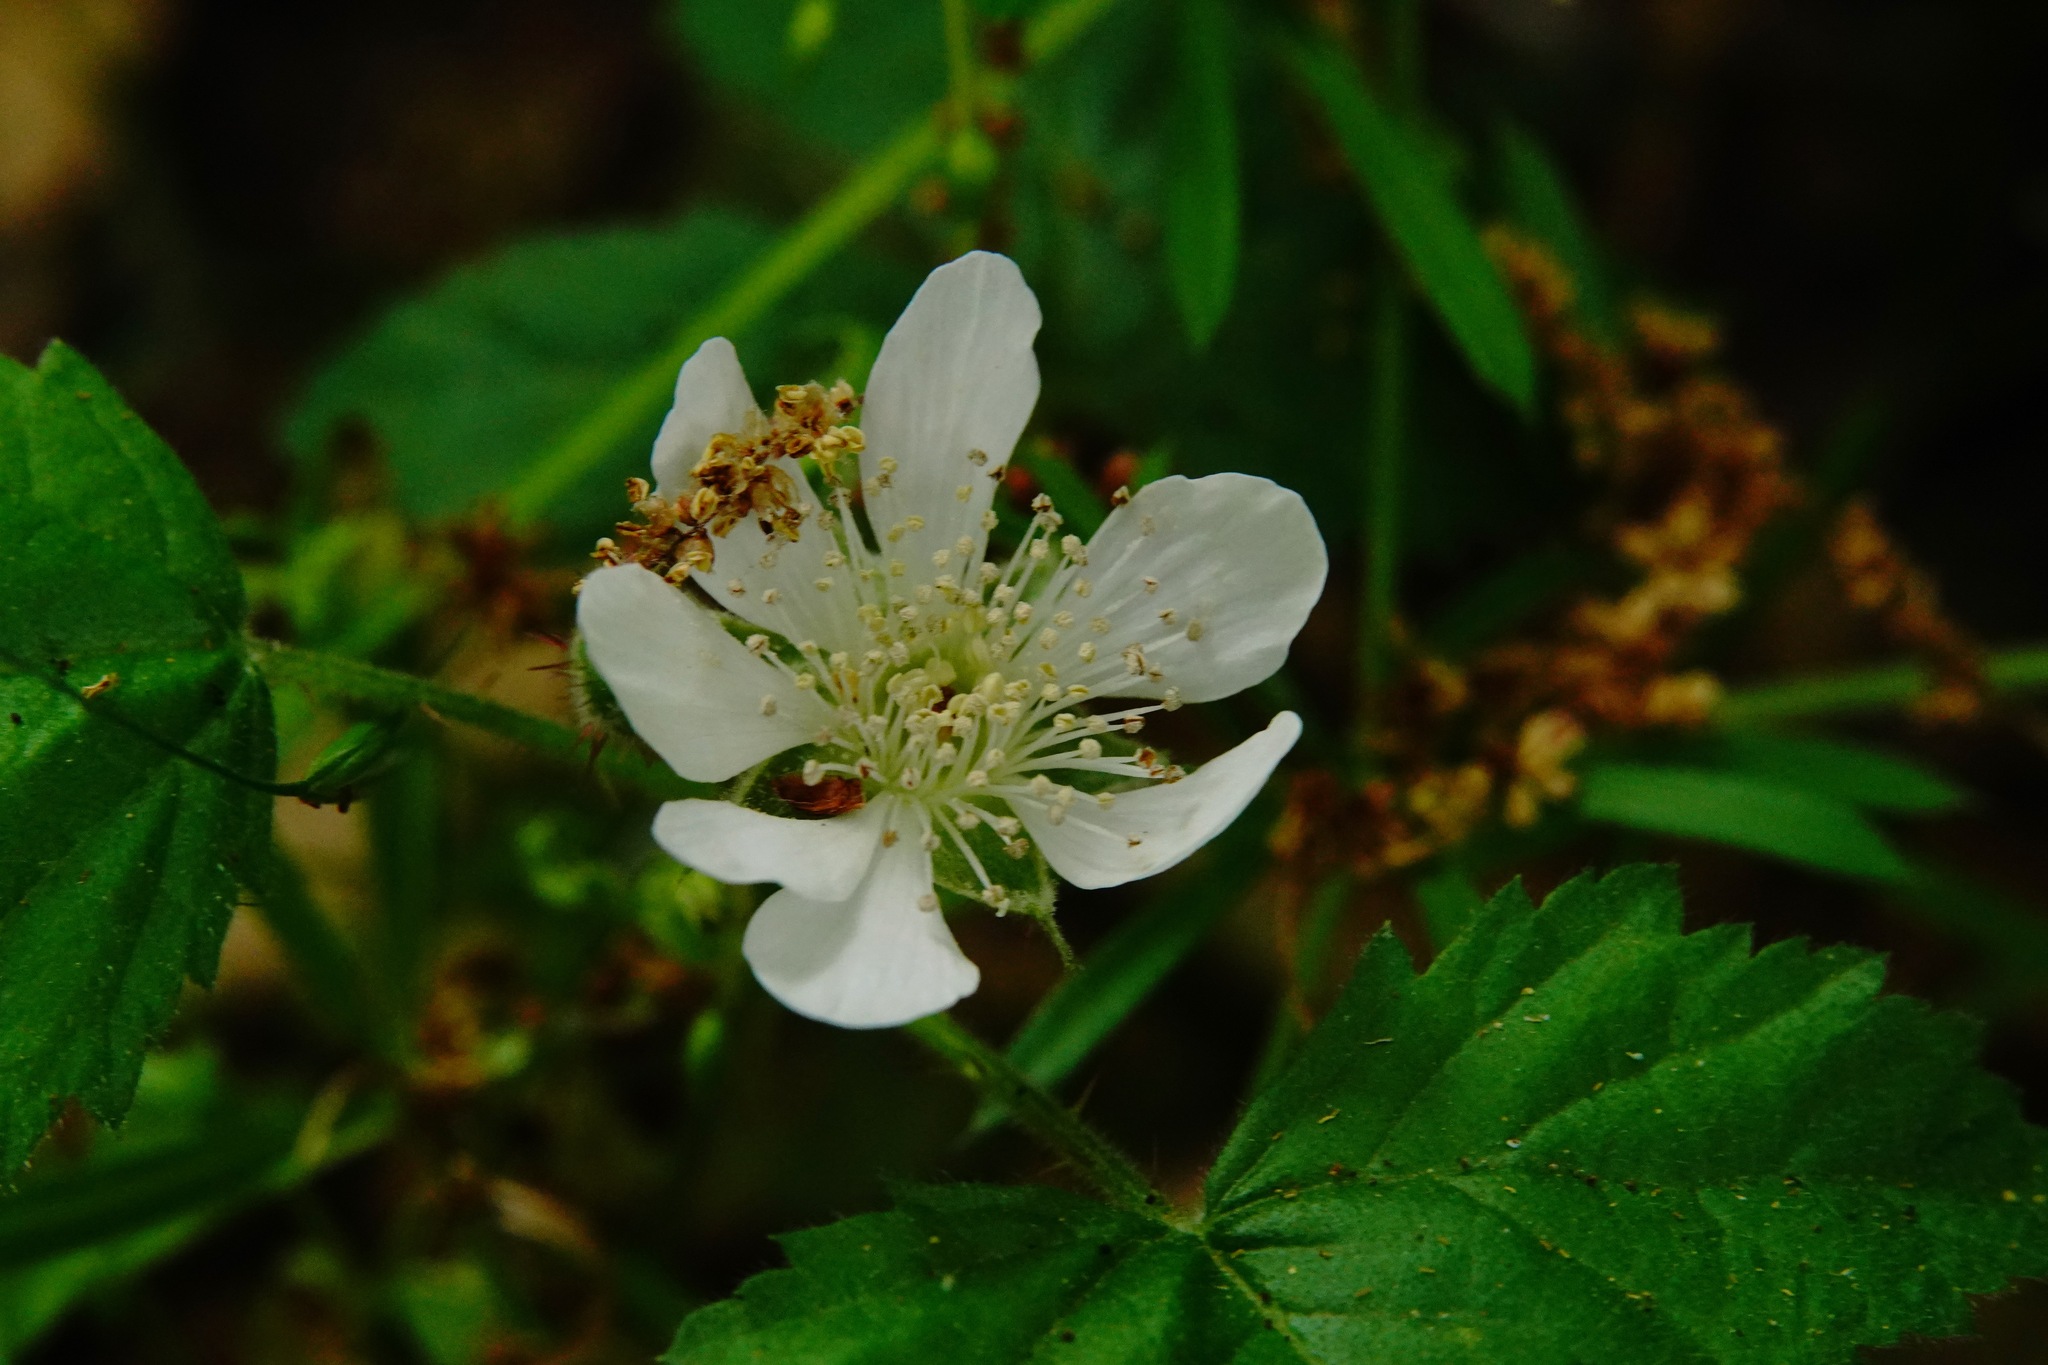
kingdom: Plantae
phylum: Tracheophyta
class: Magnoliopsida
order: Rosales
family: Rosaceae
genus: Rubus
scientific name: Rubus ursinus
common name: Pacific blackberry
